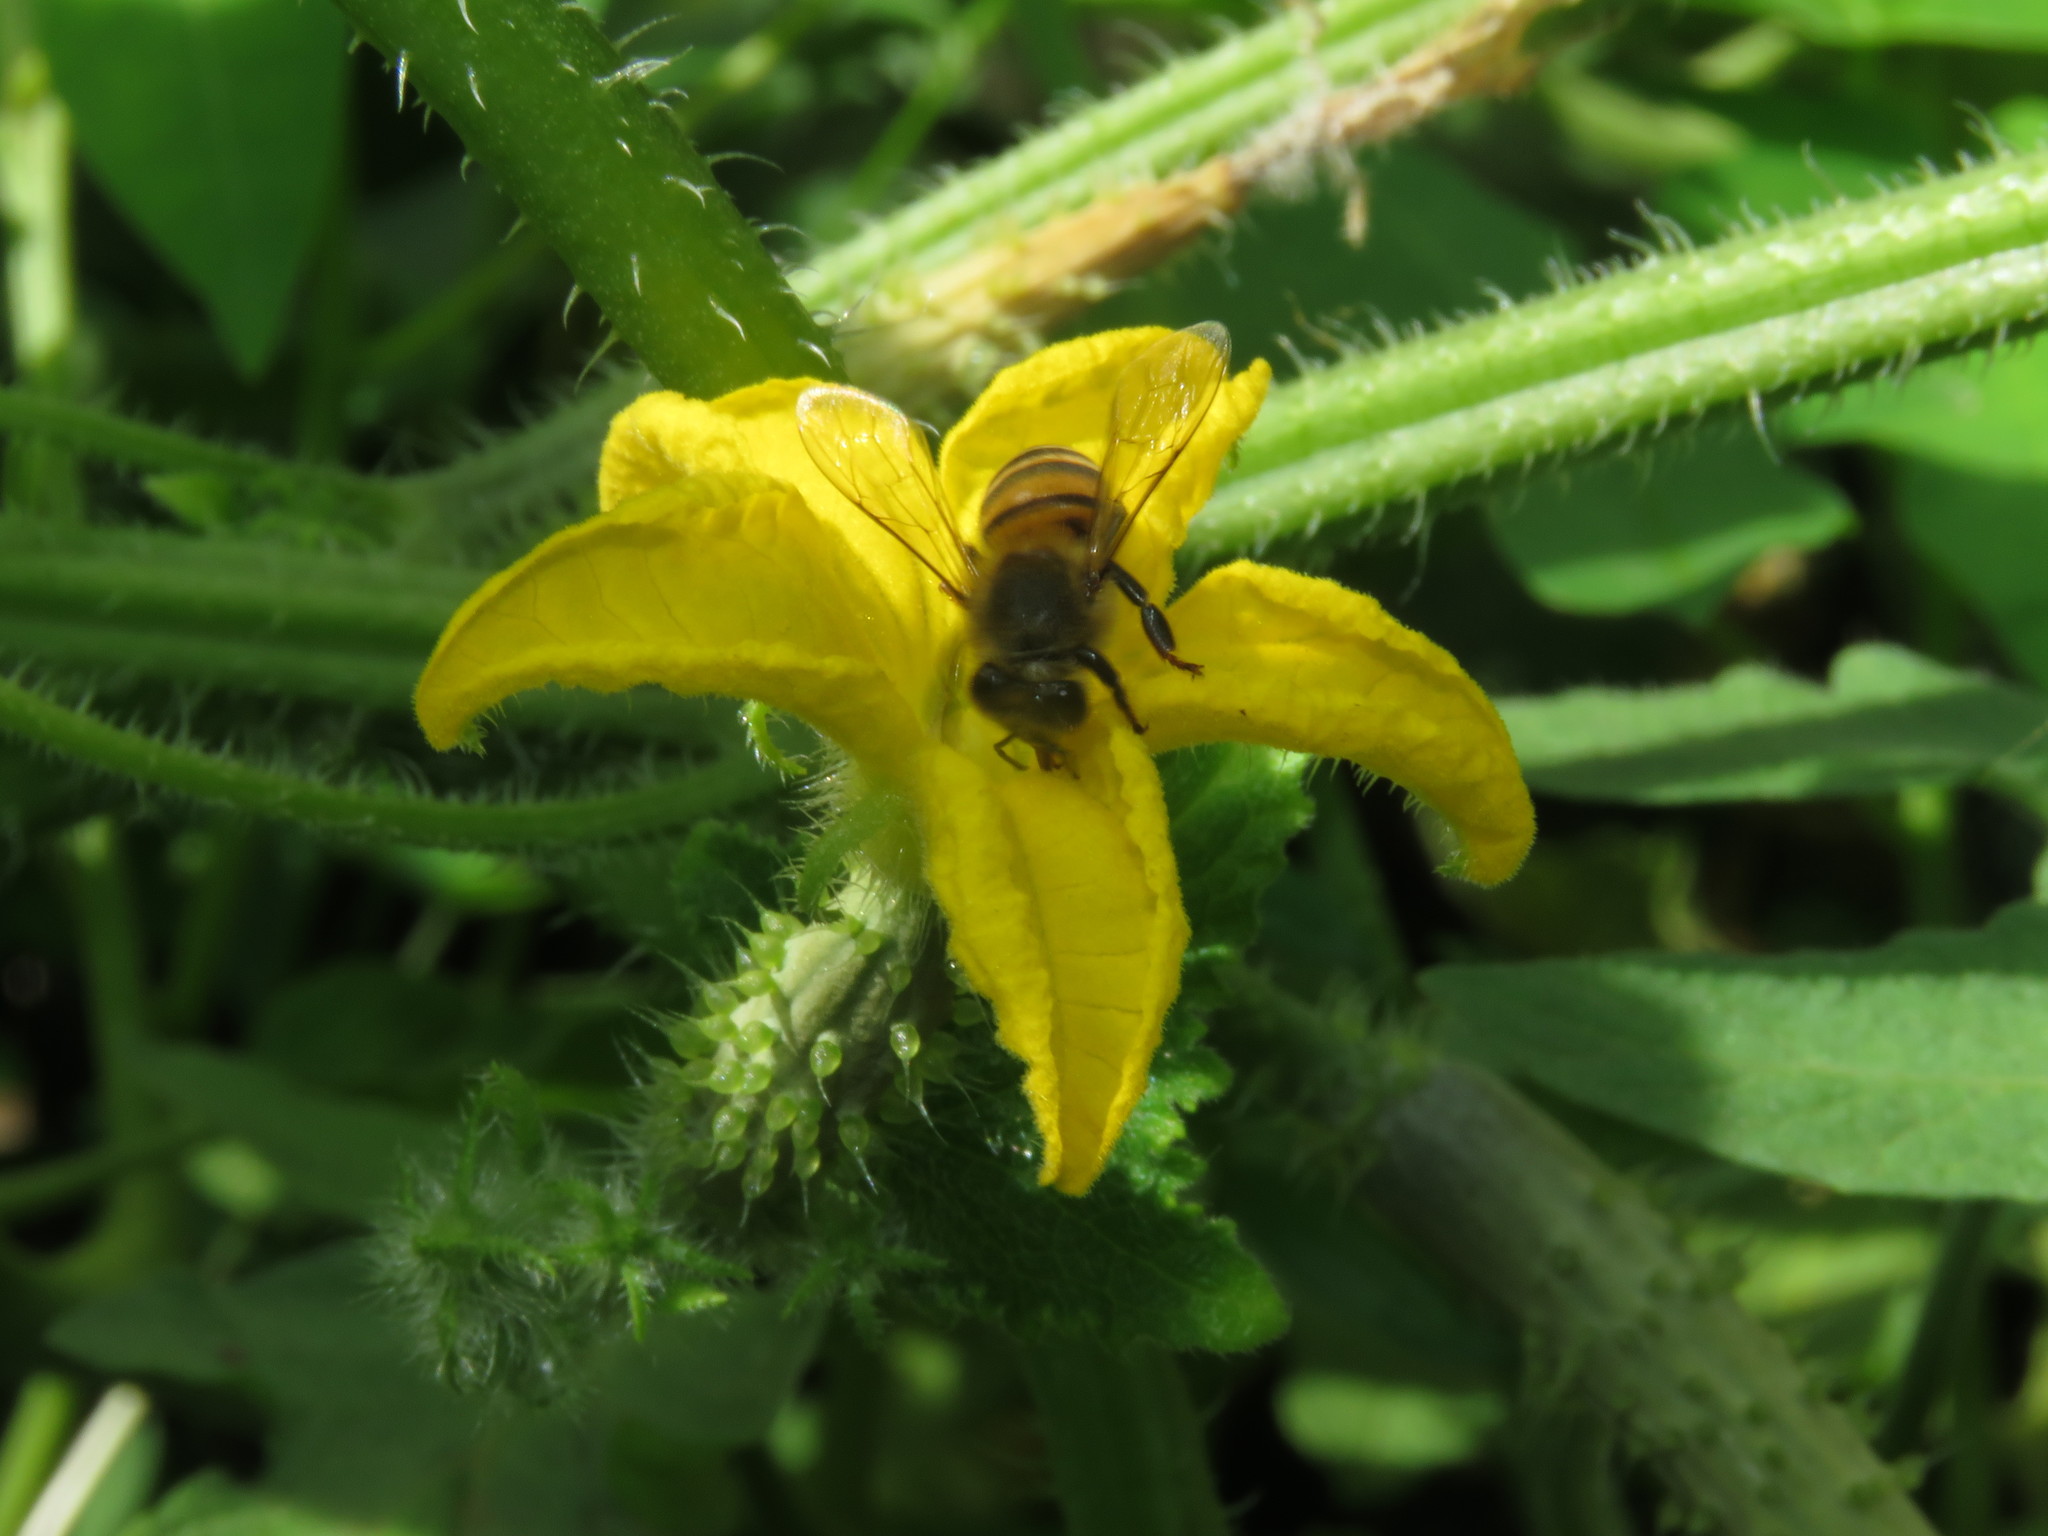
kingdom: Animalia
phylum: Arthropoda
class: Insecta
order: Hymenoptera
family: Apidae
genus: Apis
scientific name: Apis mellifera
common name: Honey bee
